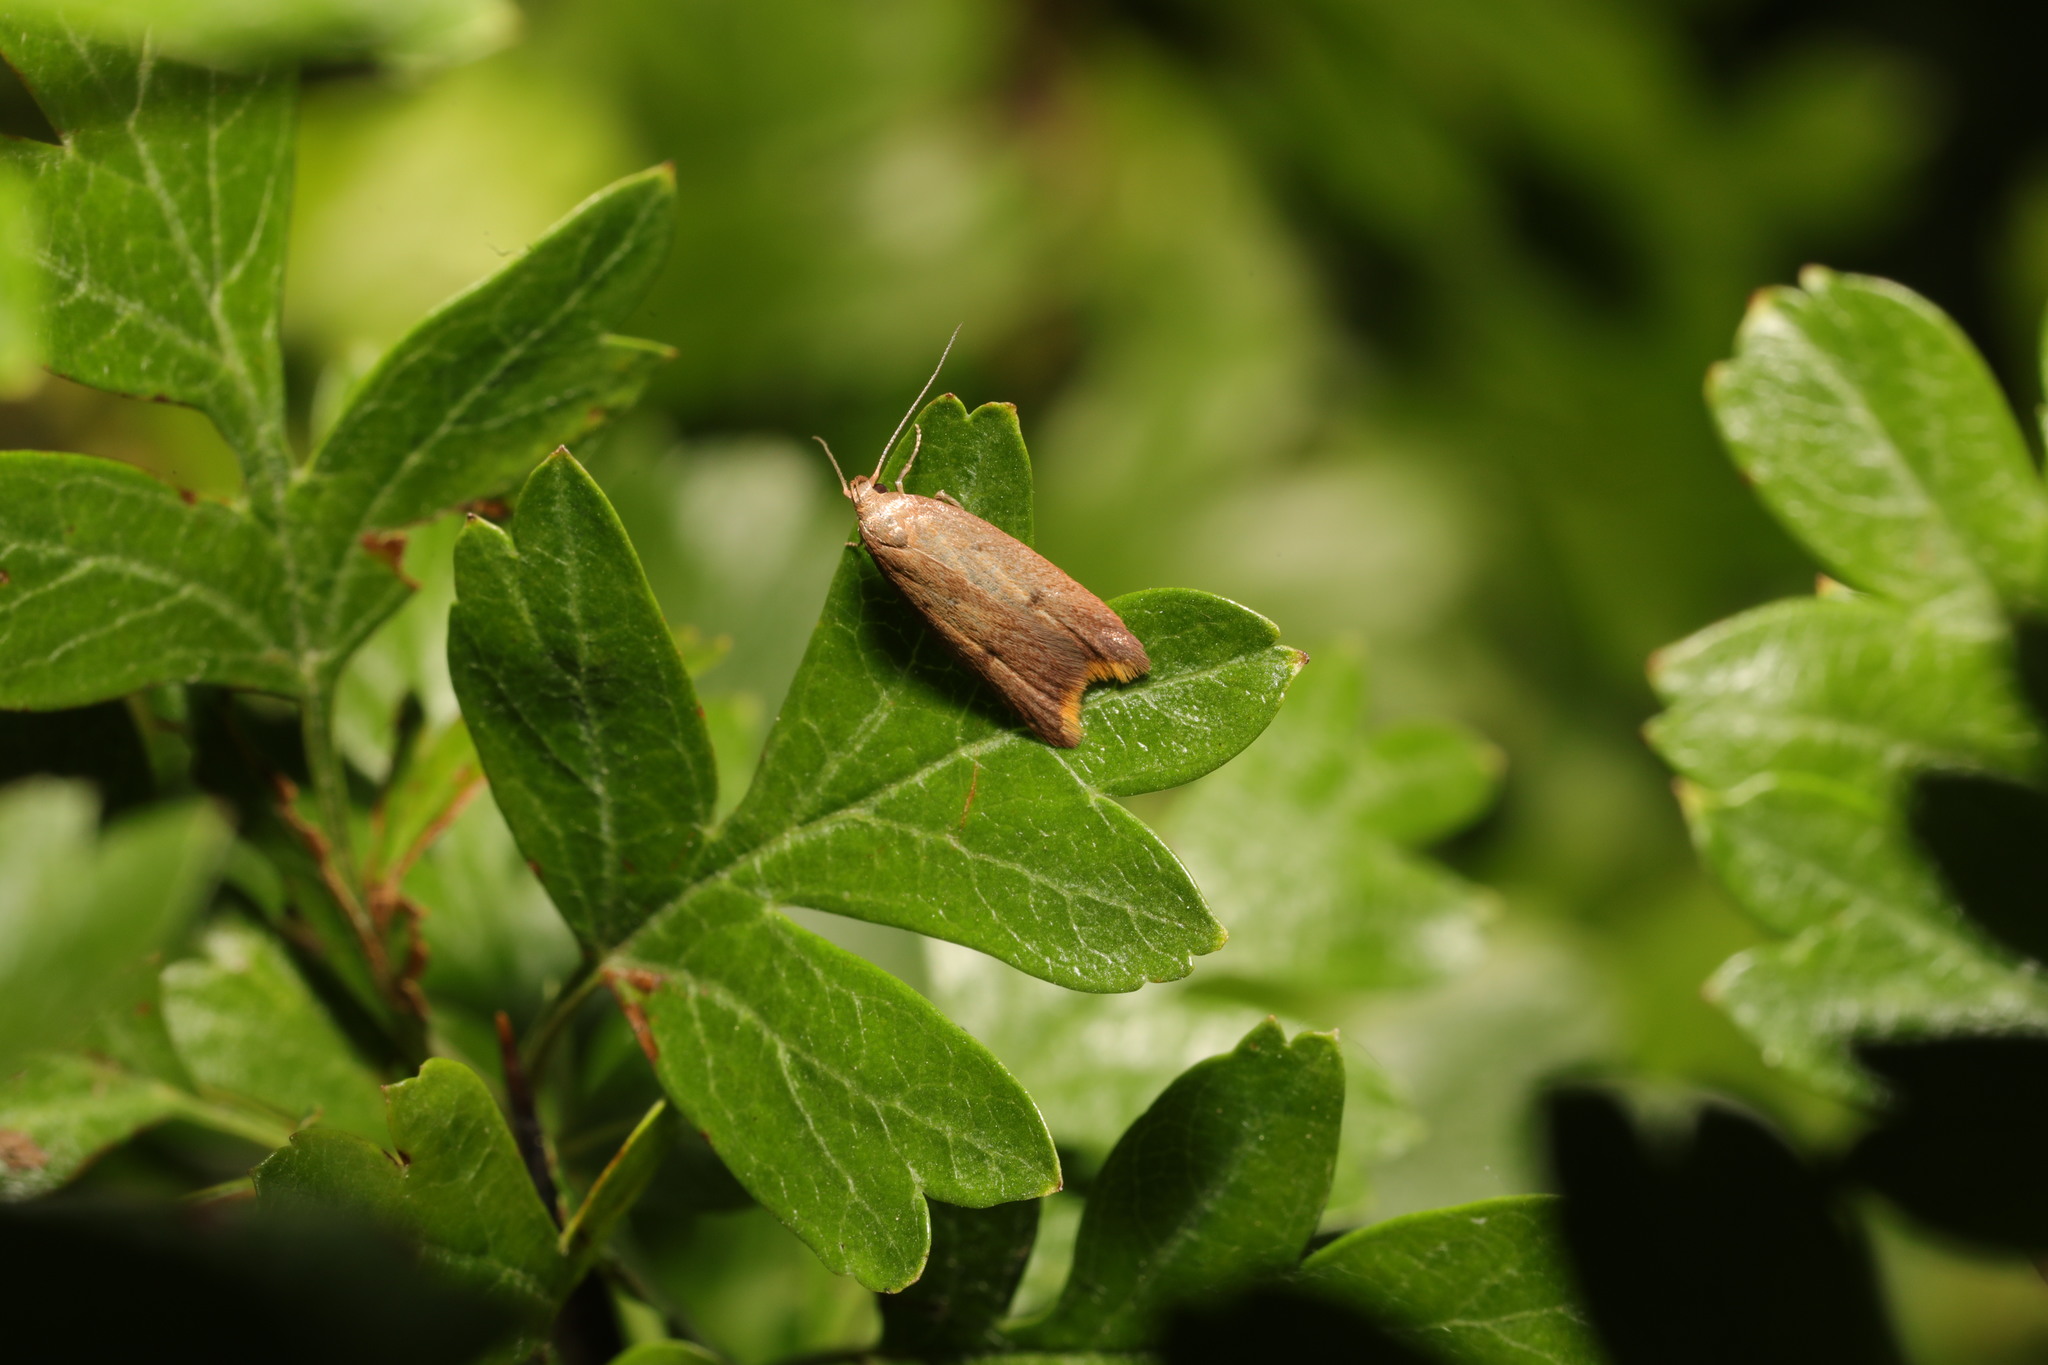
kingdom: Animalia
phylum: Arthropoda
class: Insecta
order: Lepidoptera
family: Oecophoridae
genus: Tachystola
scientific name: Tachystola acroxantha
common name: Ruddy streak
